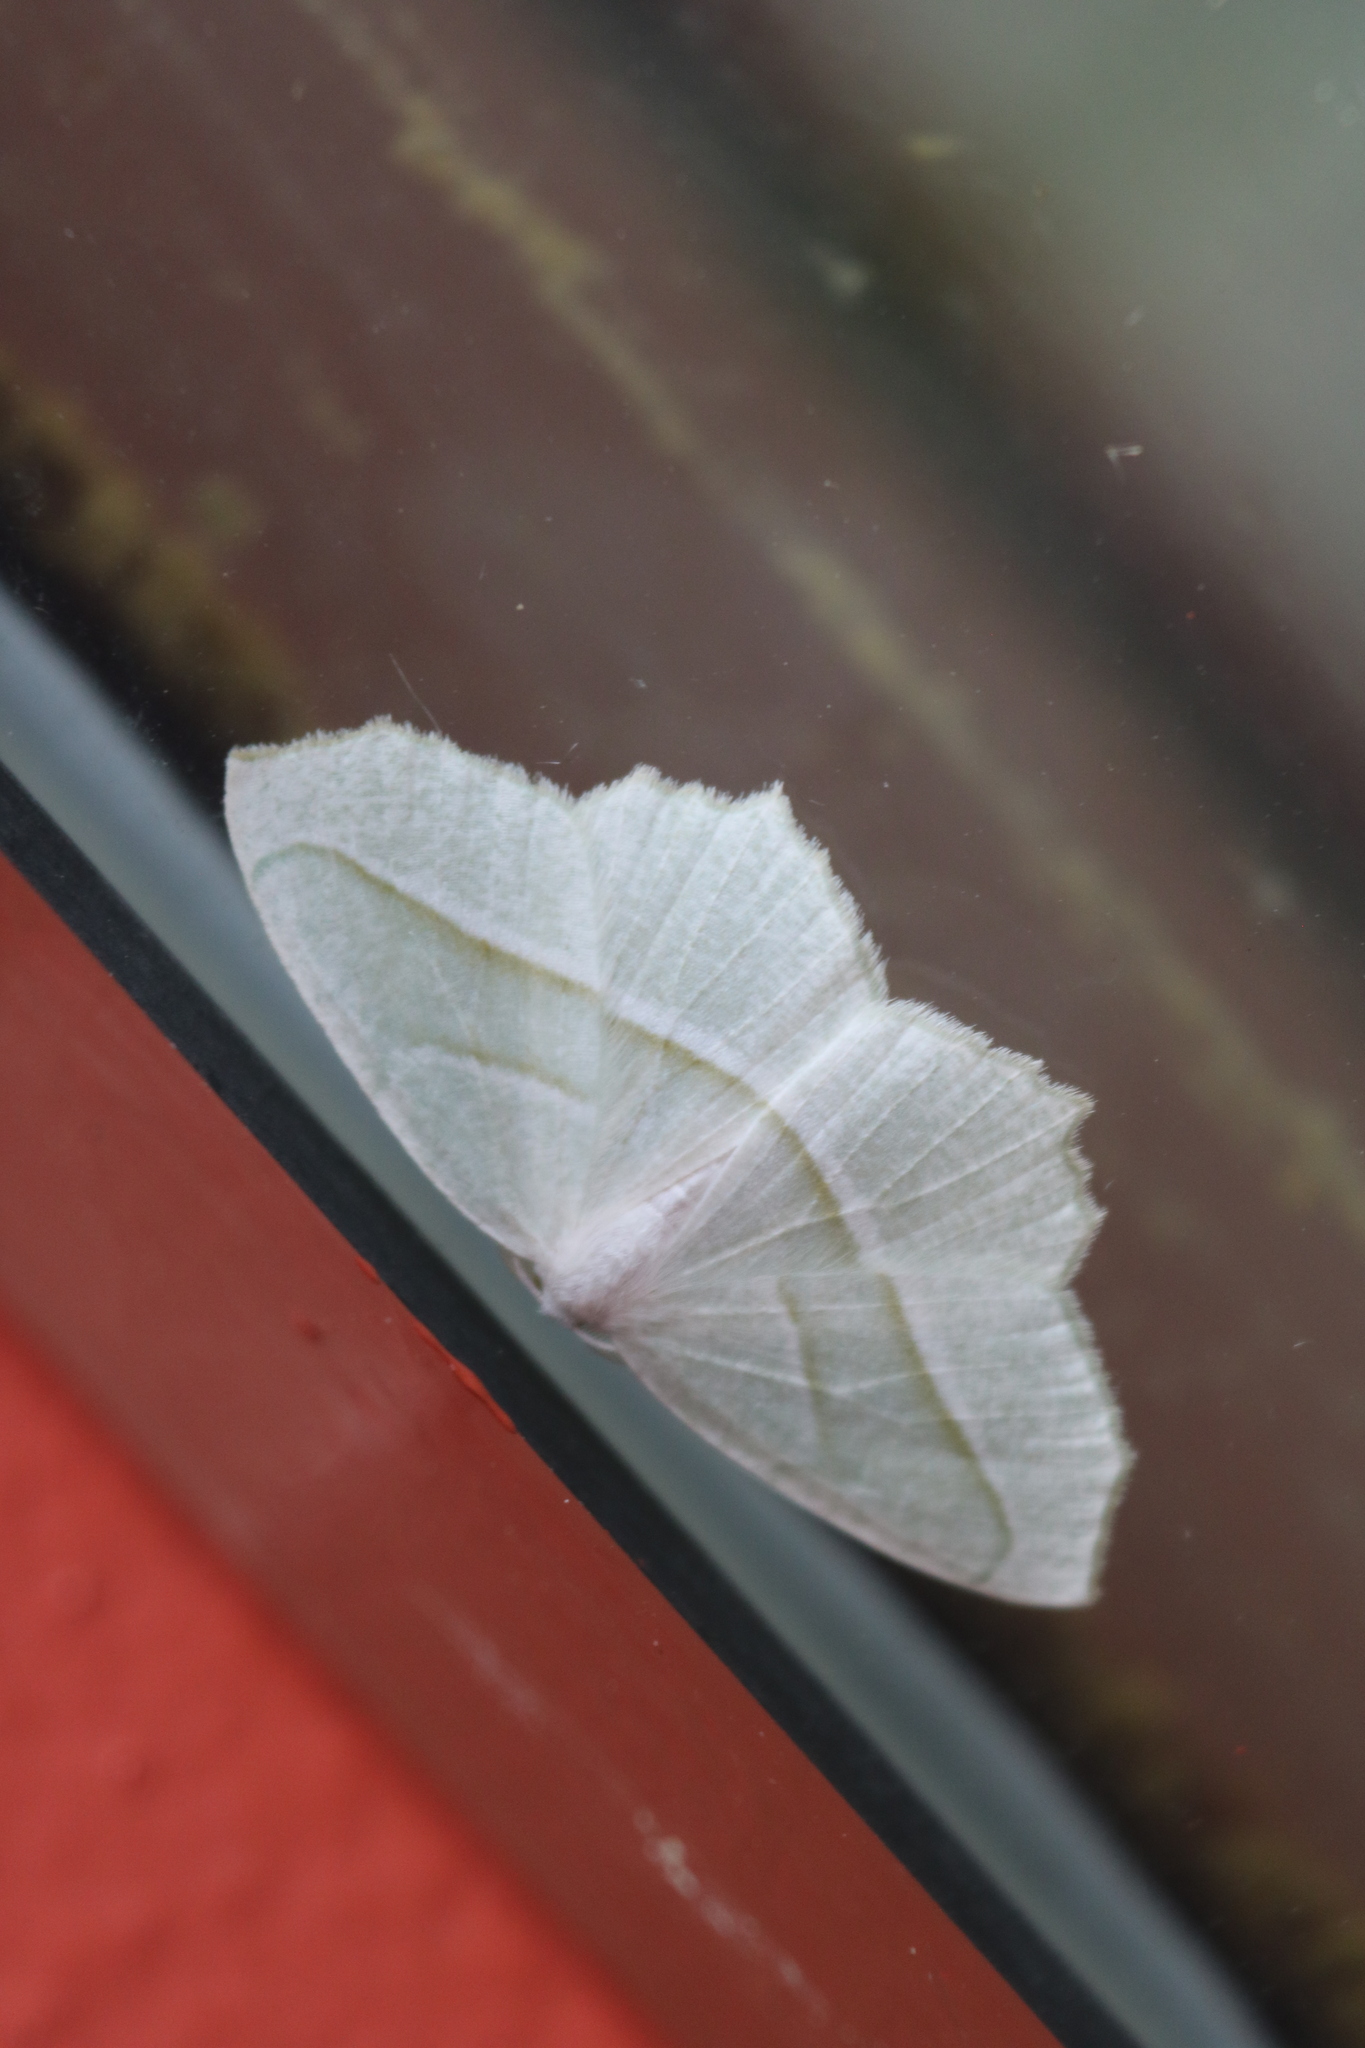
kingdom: Animalia
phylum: Arthropoda
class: Insecta
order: Lepidoptera
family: Geometridae
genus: Campaea
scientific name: Campaea perlata
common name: Fringed looper
